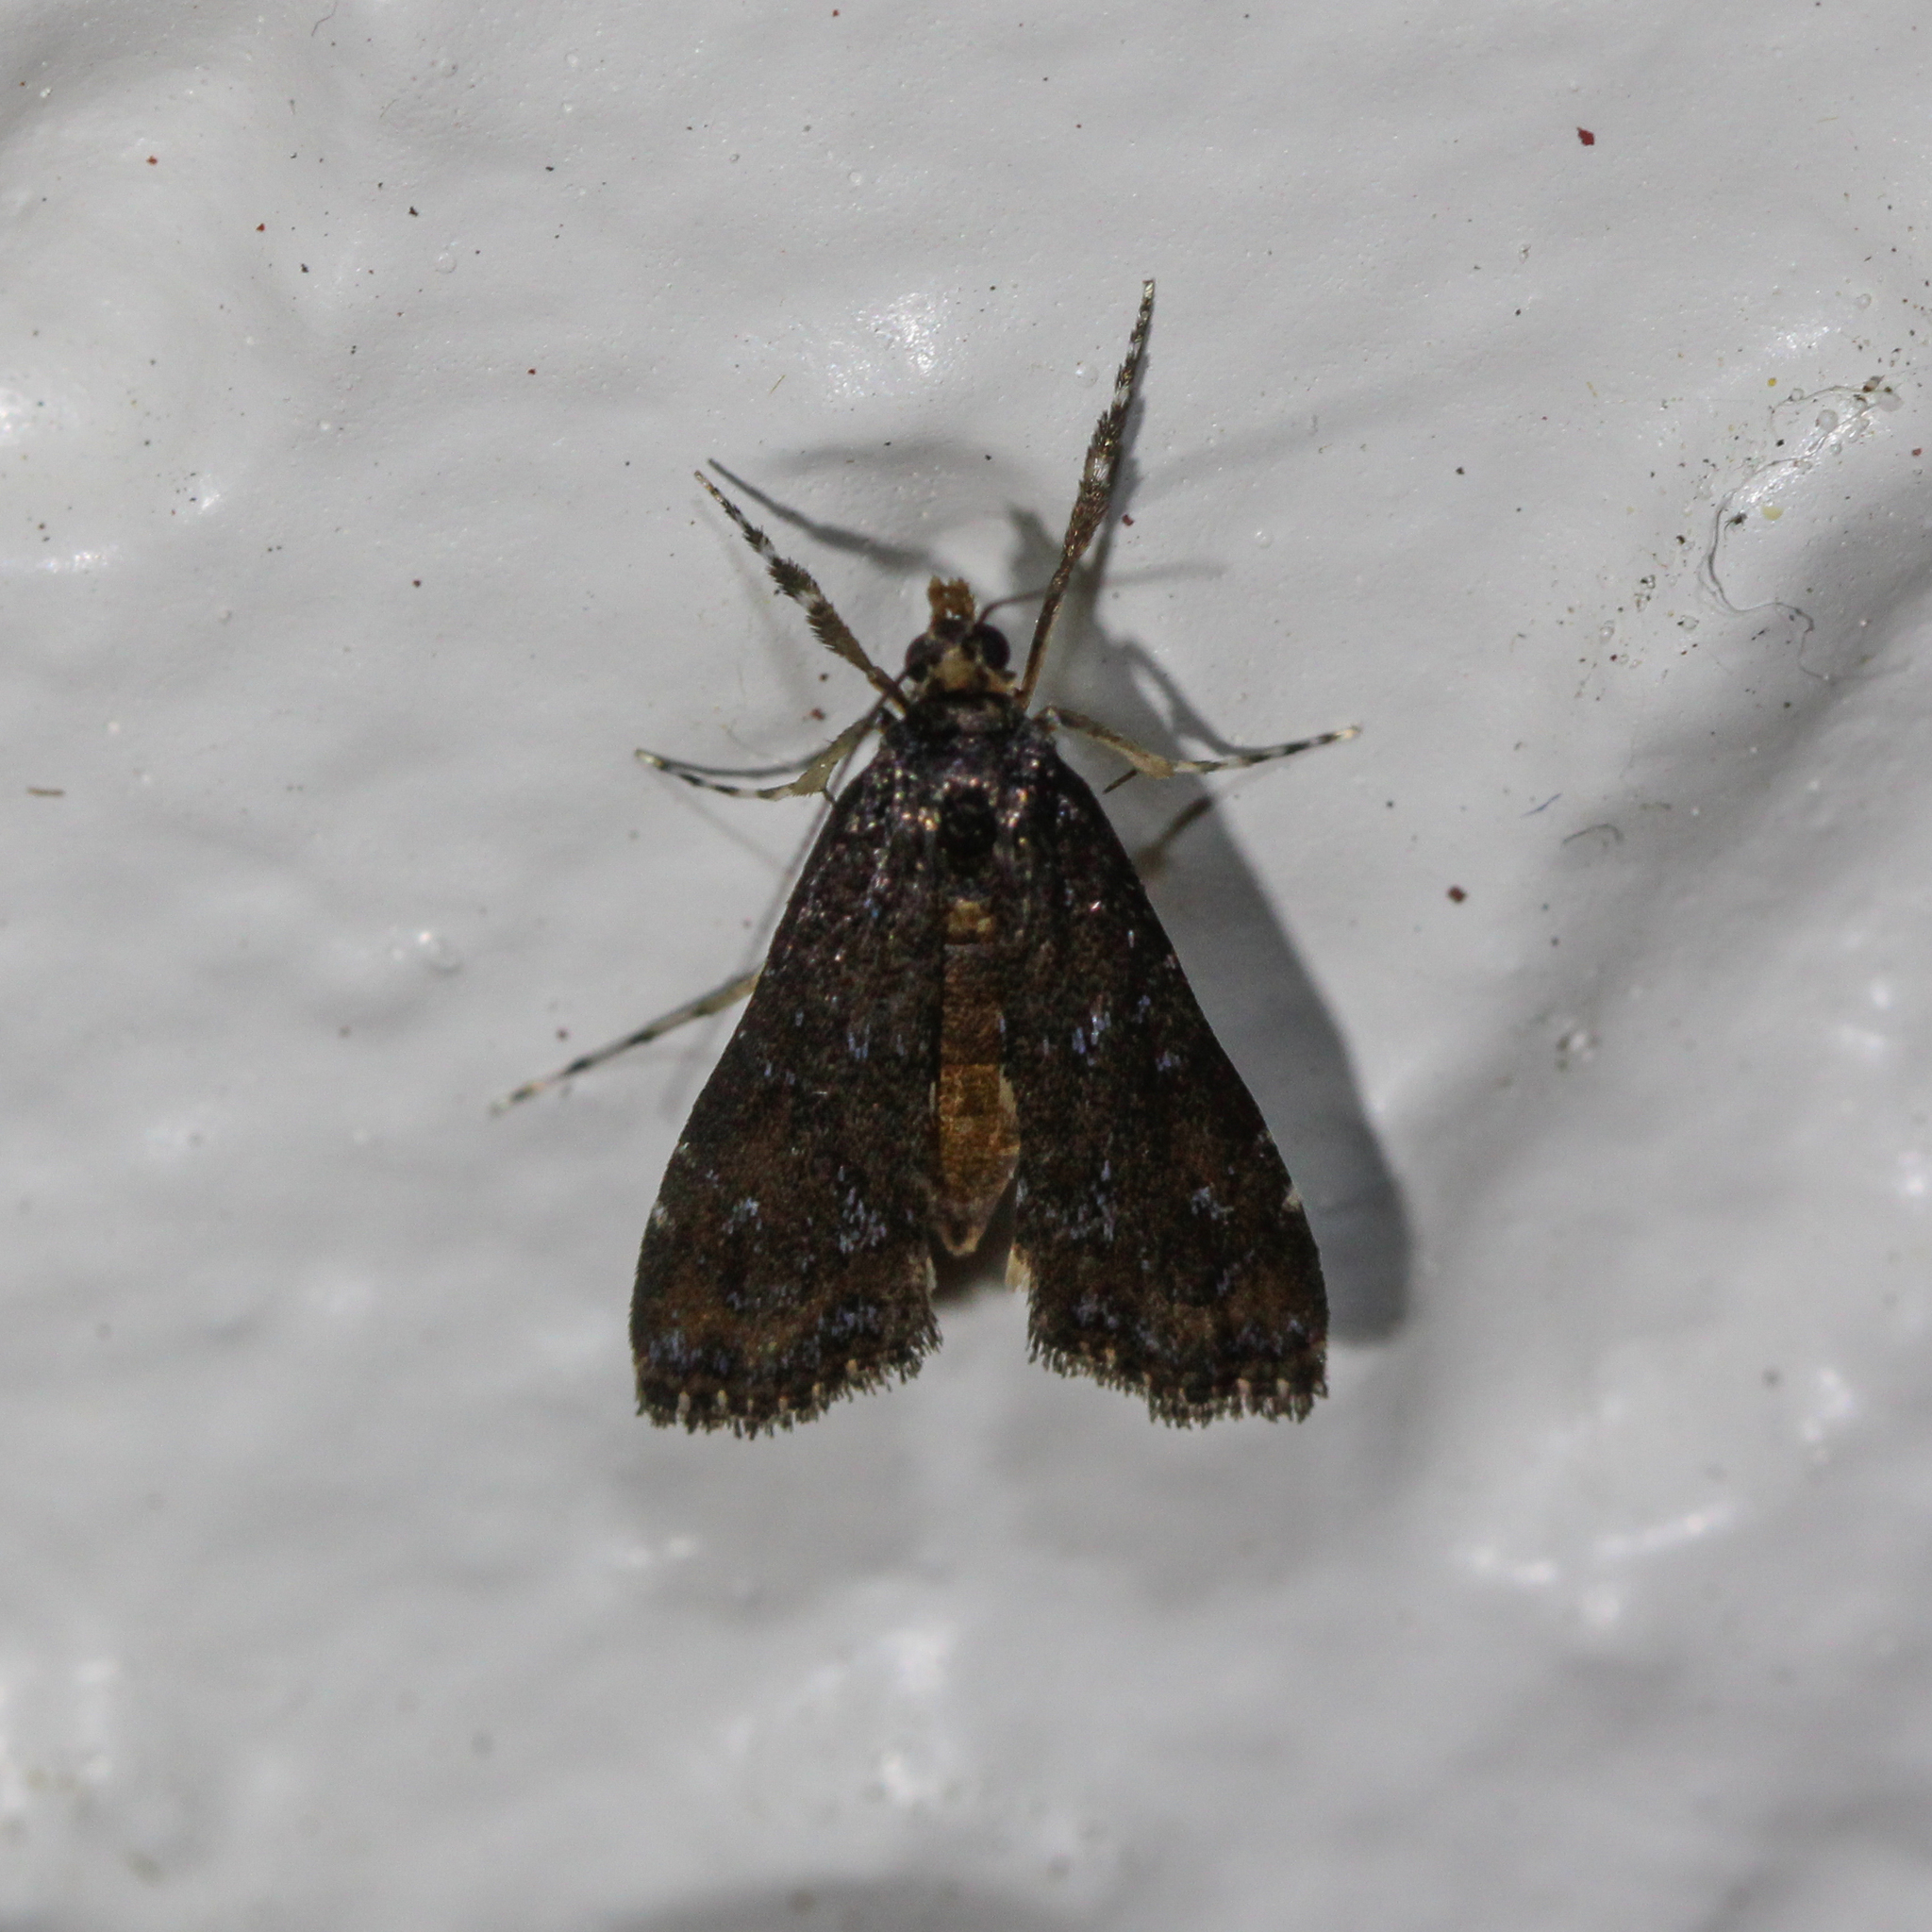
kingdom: Animalia
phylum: Arthropoda
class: Insecta
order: Lepidoptera
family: Crambidae
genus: Langessa
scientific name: Langessa nomophilalis
